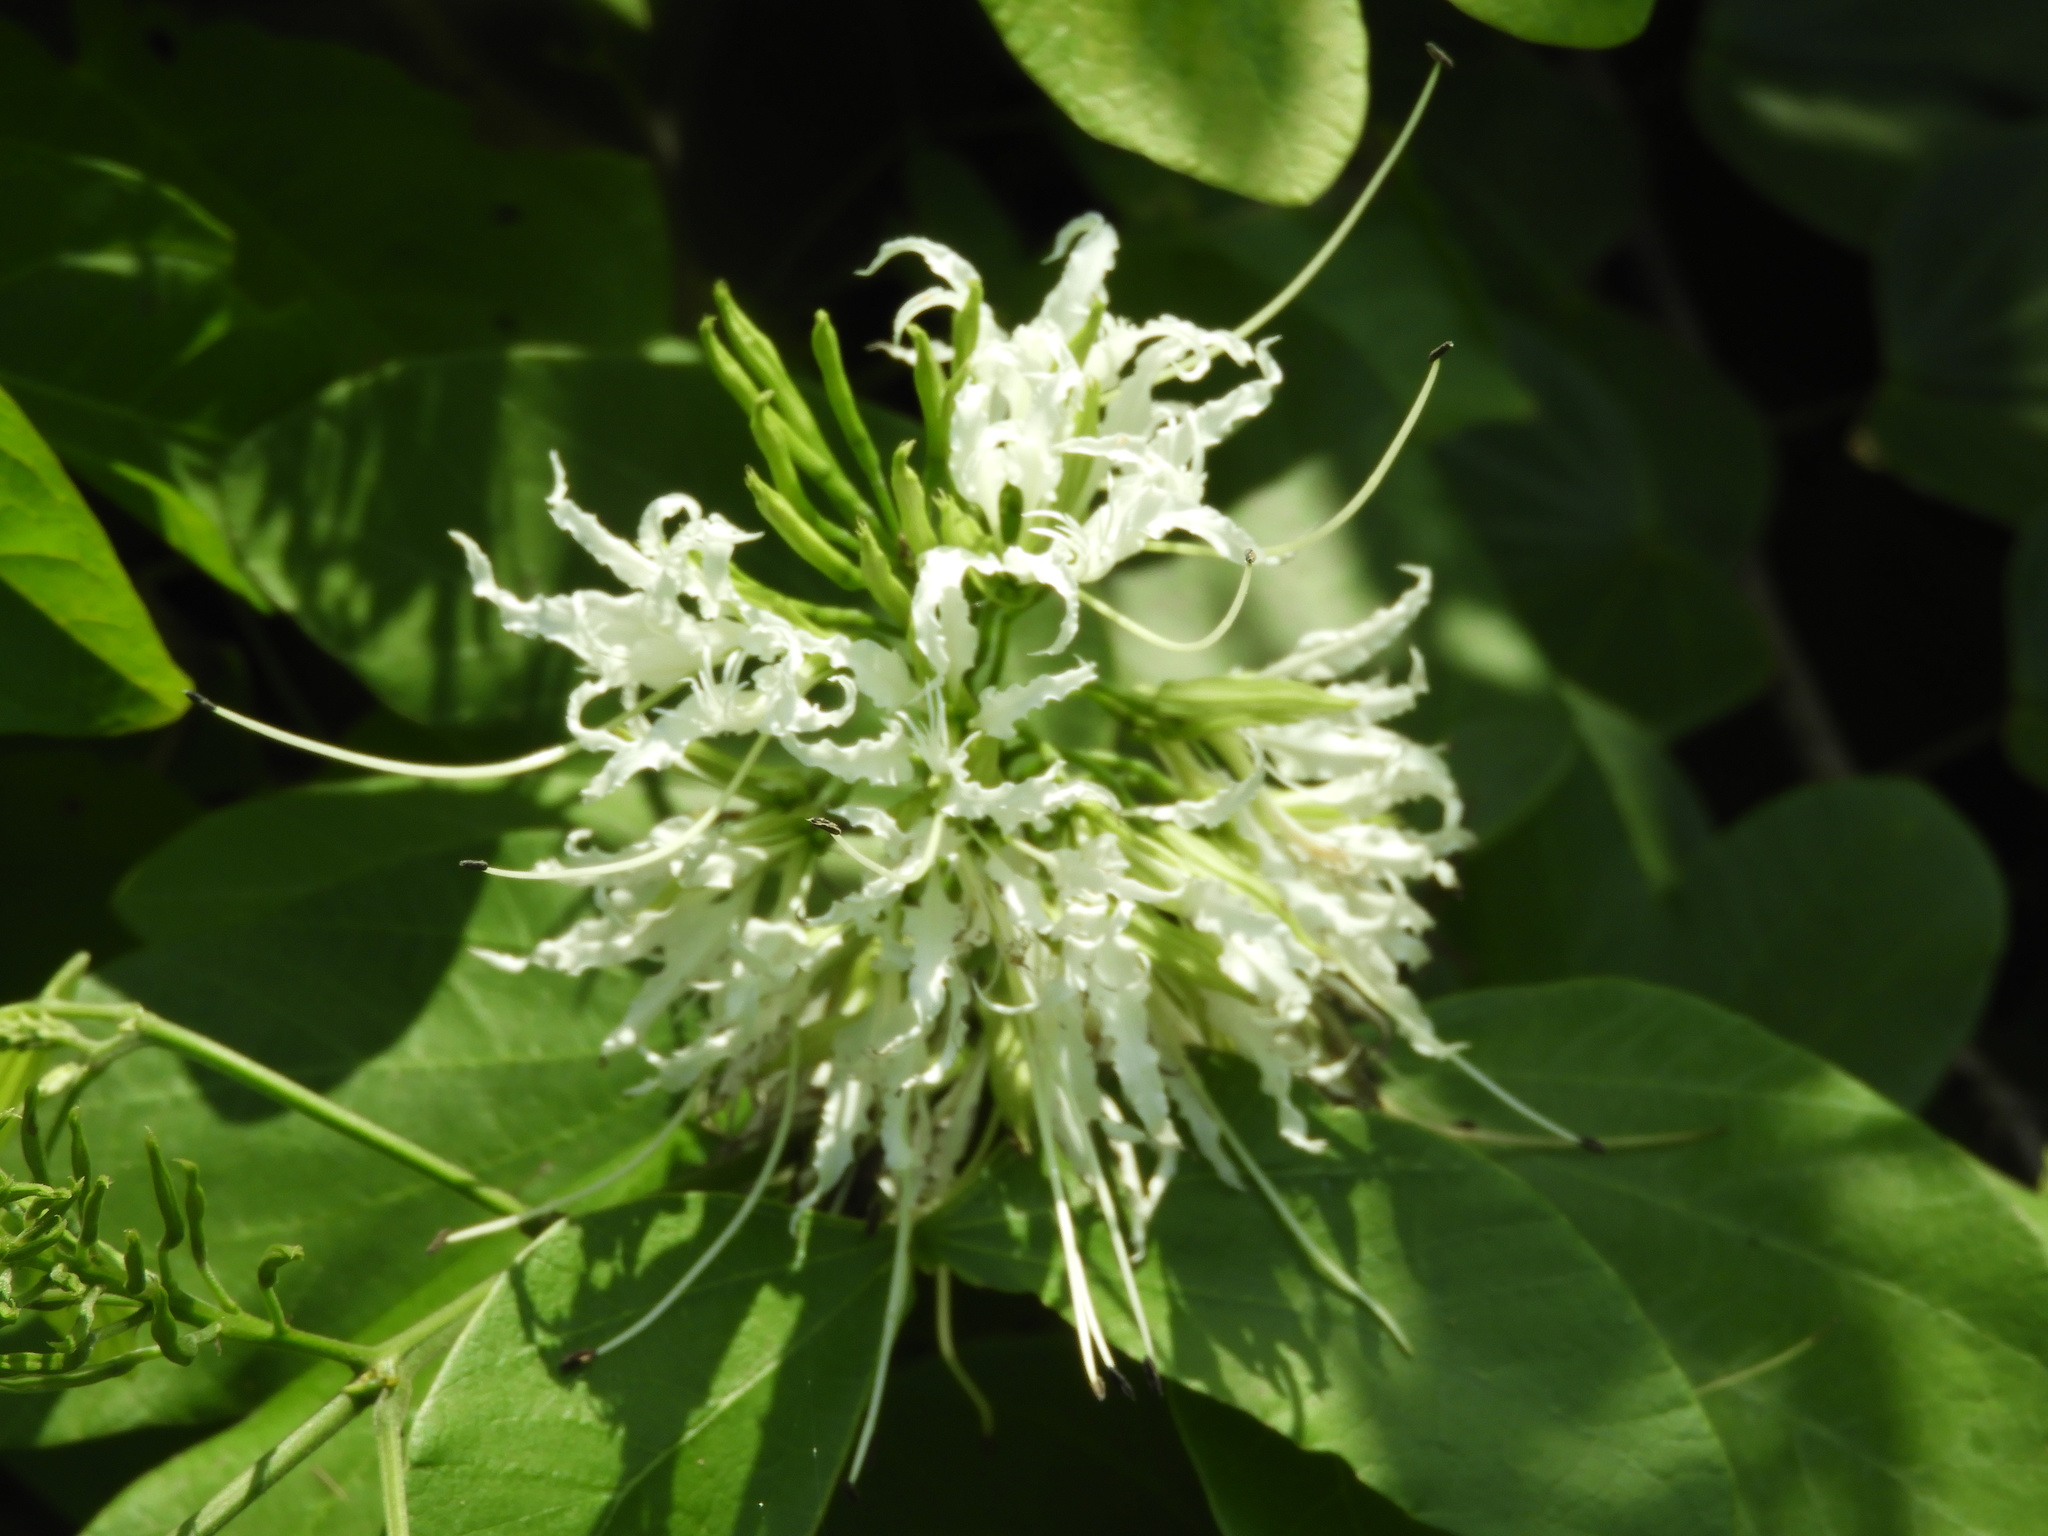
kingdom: Plantae
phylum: Tracheophyta
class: Magnoliopsida
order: Fabales
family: Fabaceae
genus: Bauhinia
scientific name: Bauhinia divaricata
